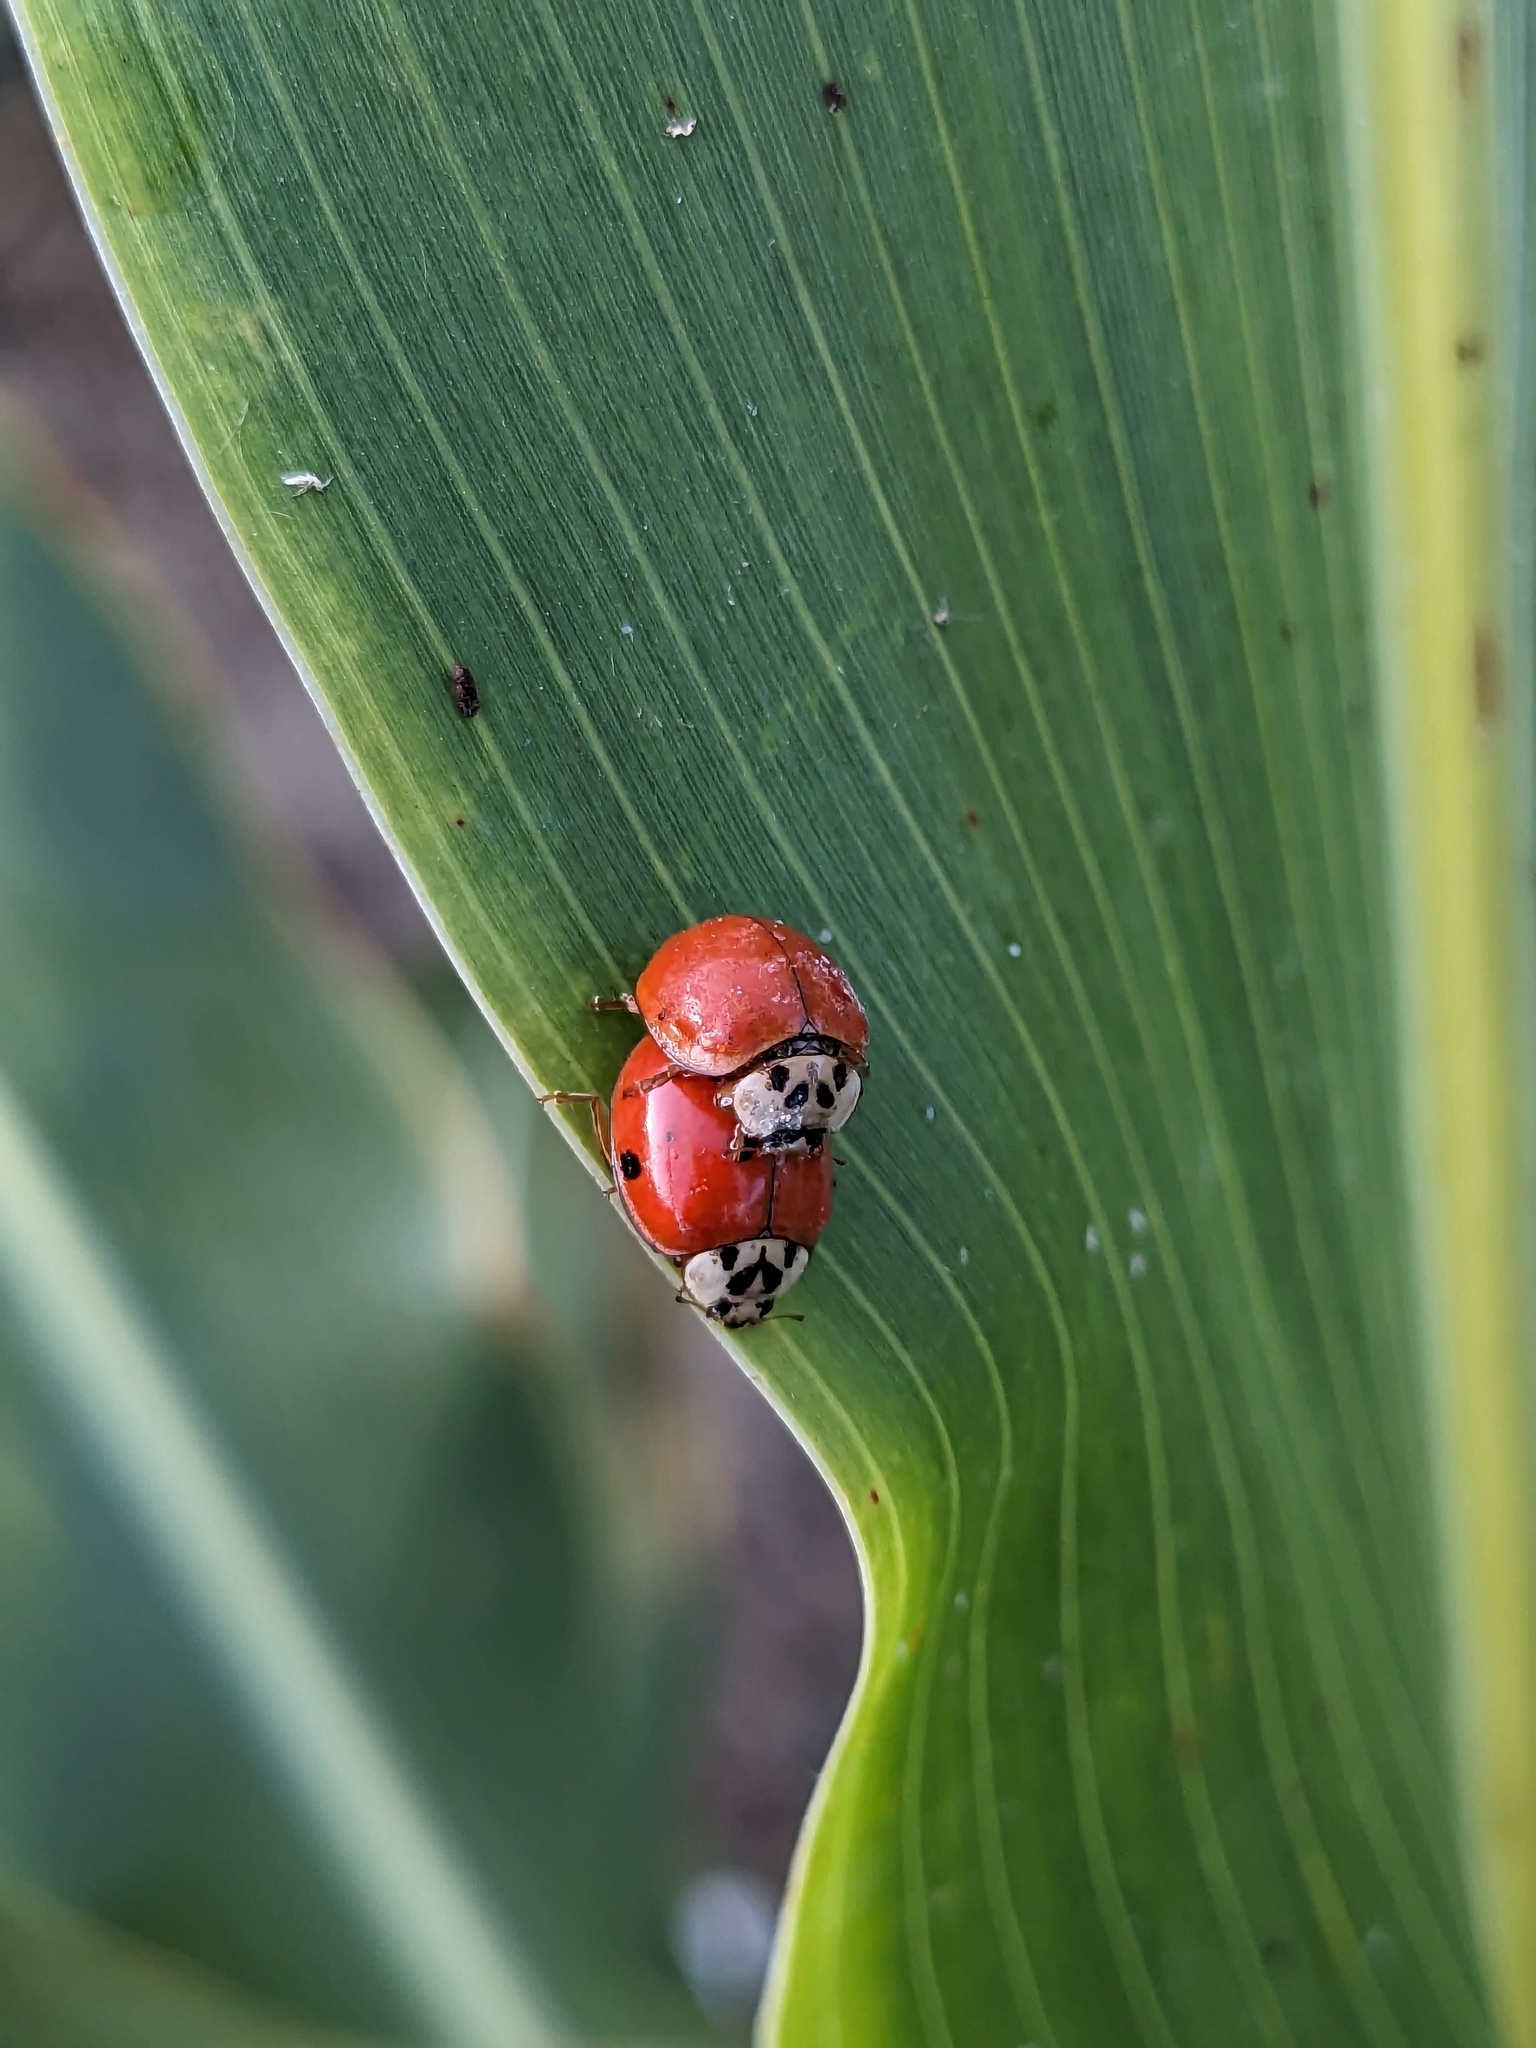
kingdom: Animalia
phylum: Arthropoda
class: Insecta
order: Coleoptera
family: Coccinellidae
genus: Harmonia
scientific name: Harmonia axyridis
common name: Harlequin ladybird
